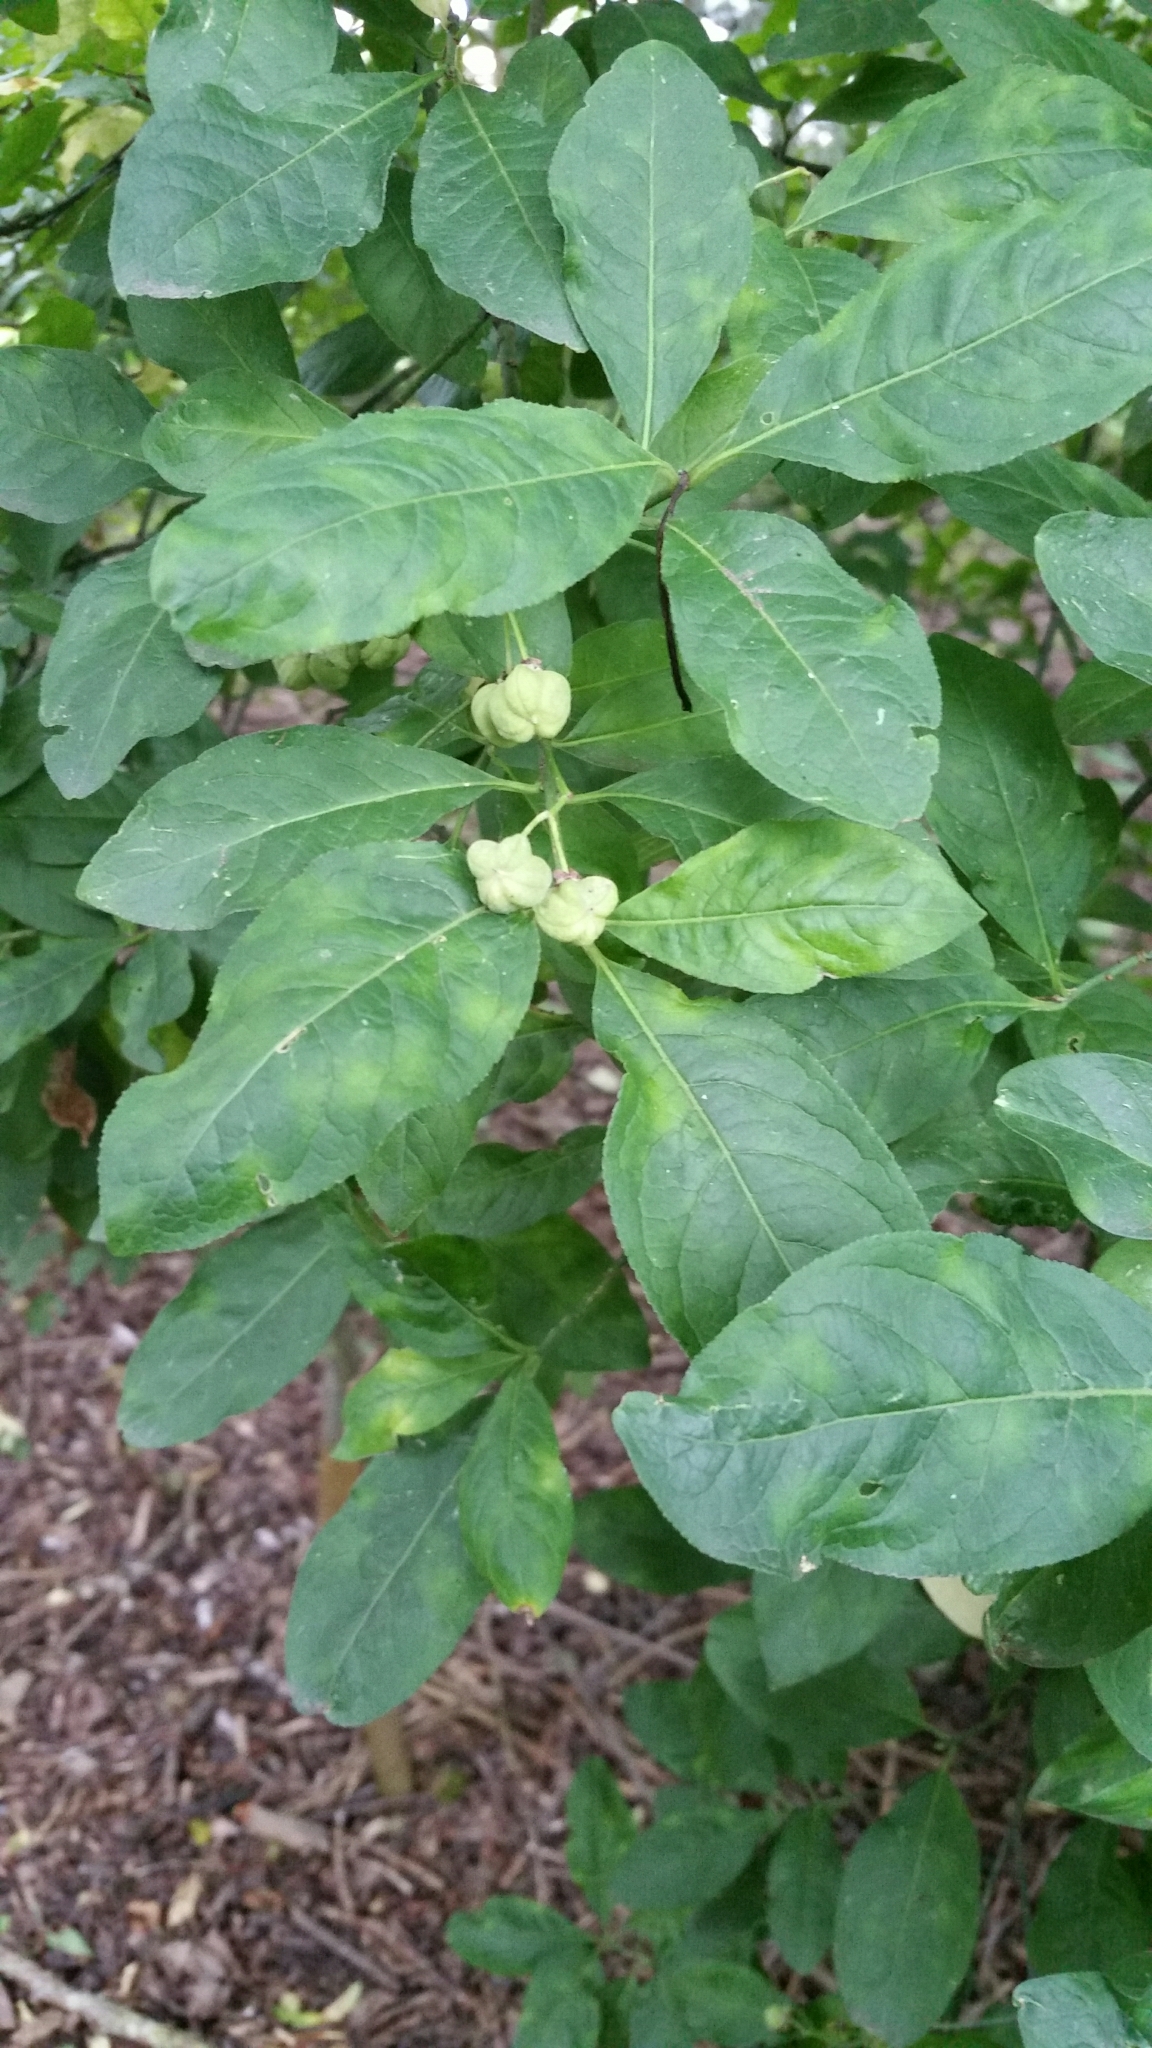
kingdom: Plantae
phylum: Tracheophyta
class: Magnoliopsida
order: Celastrales
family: Celastraceae
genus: Euonymus
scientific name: Euonymus europaeus
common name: Spindle
